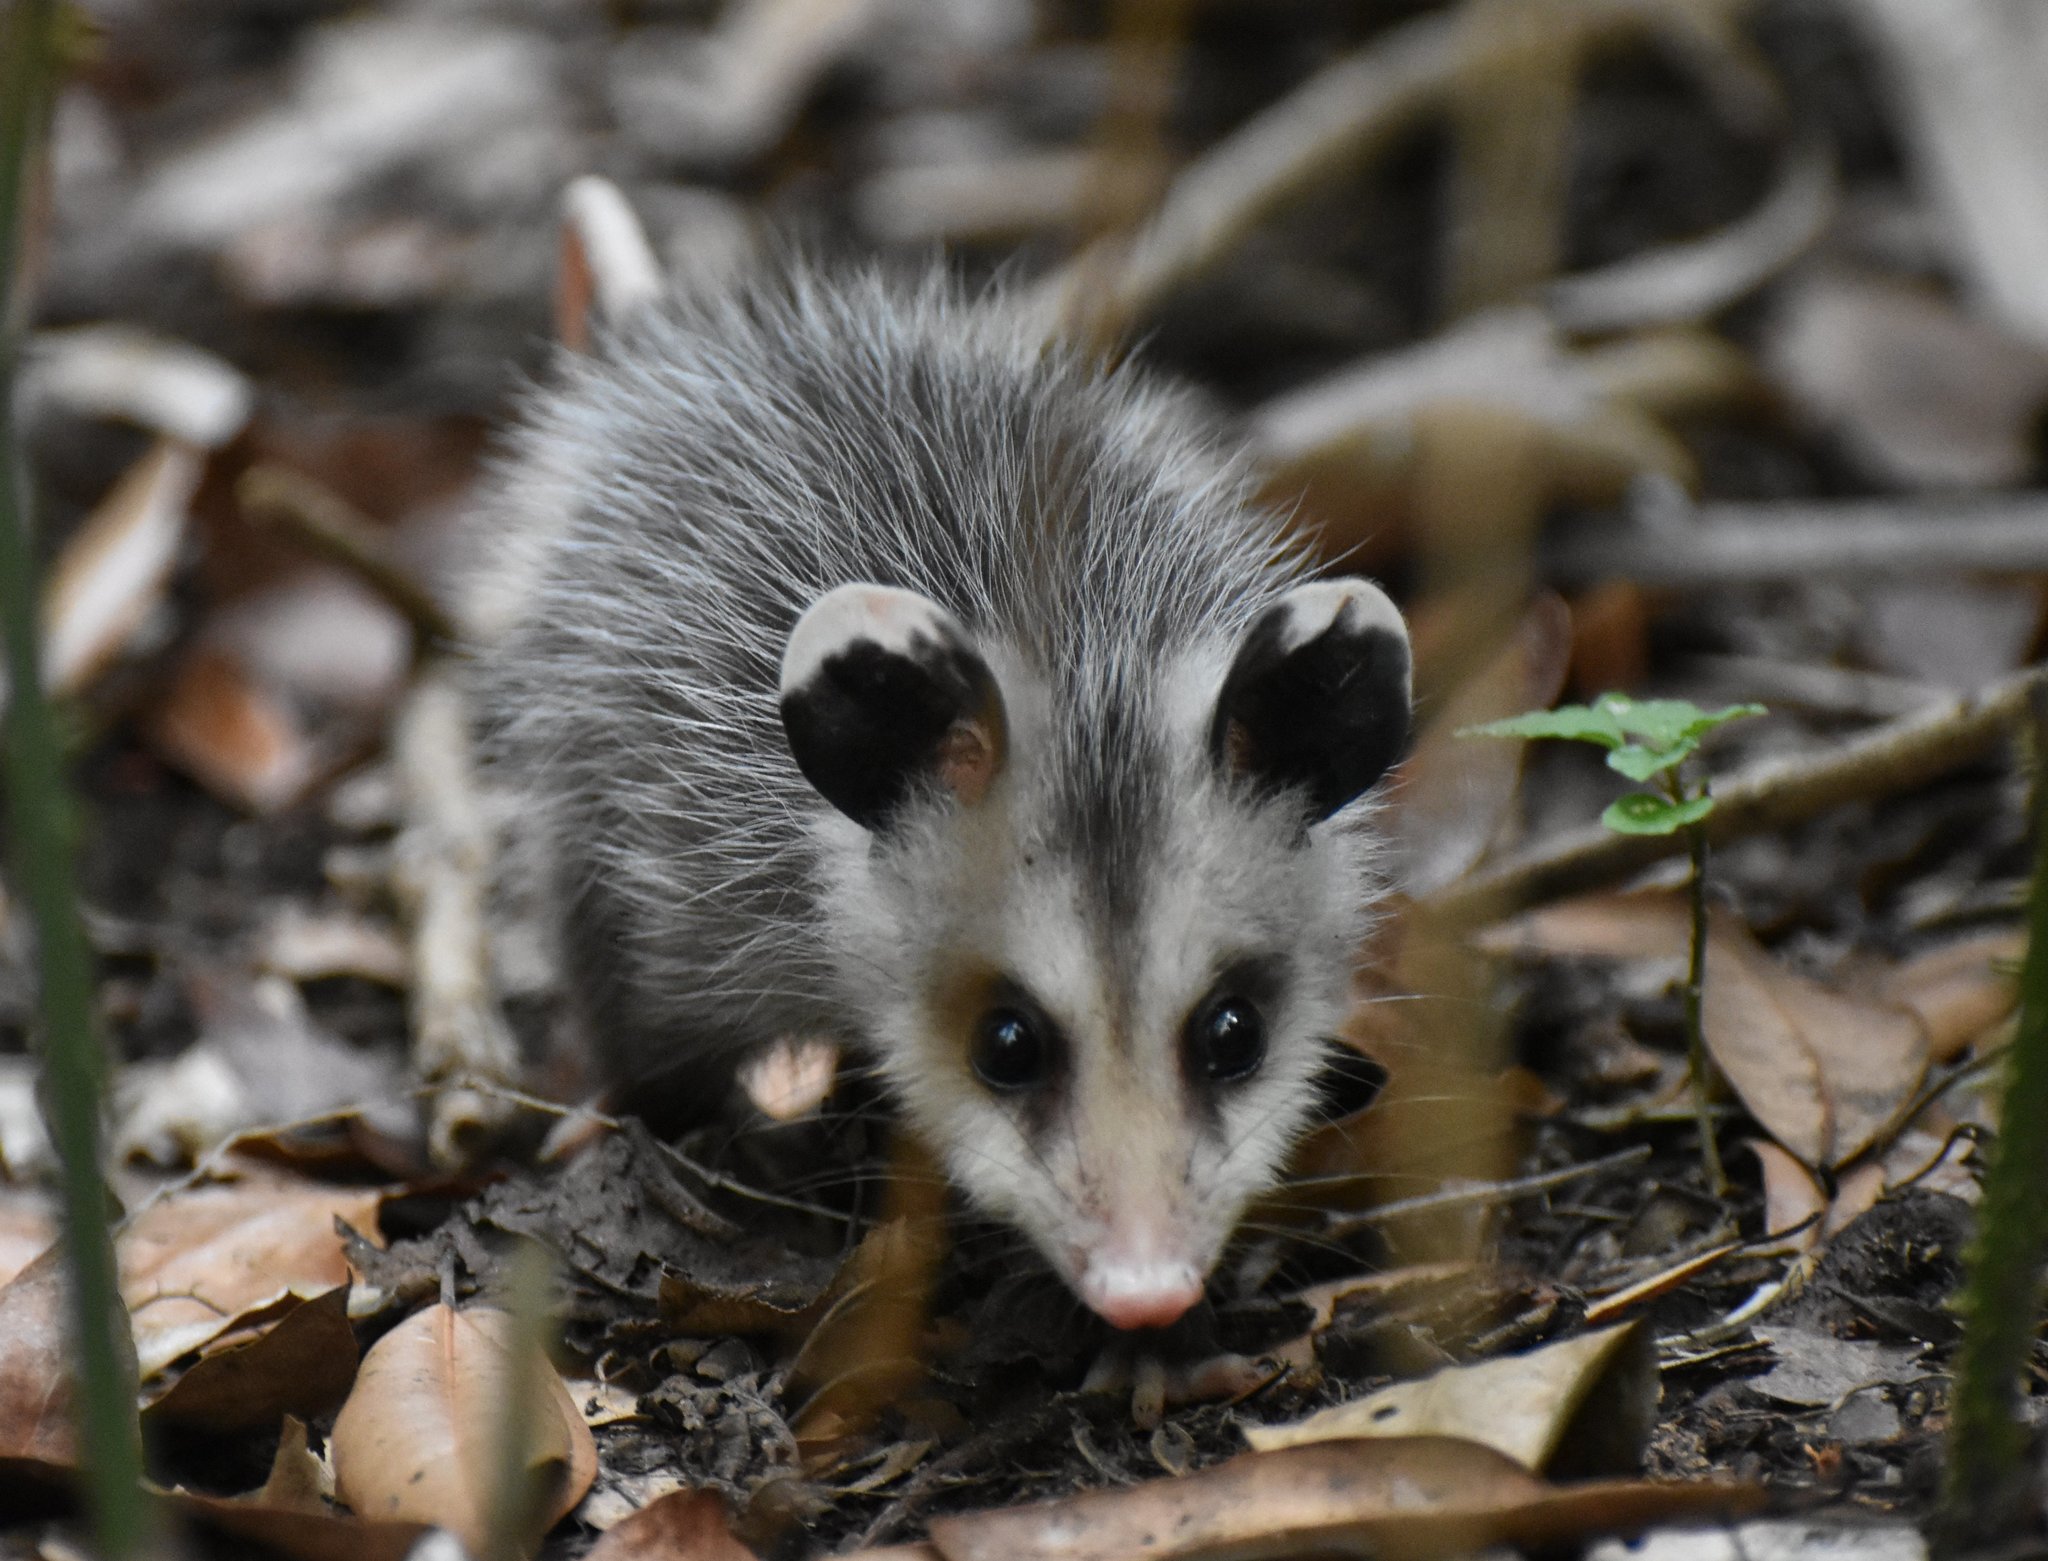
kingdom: Animalia
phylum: Chordata
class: Mammalia
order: Didelphimorphia
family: Didelphidae
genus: Didelphis
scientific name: Didelphis virginiana
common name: Virginia opossum
